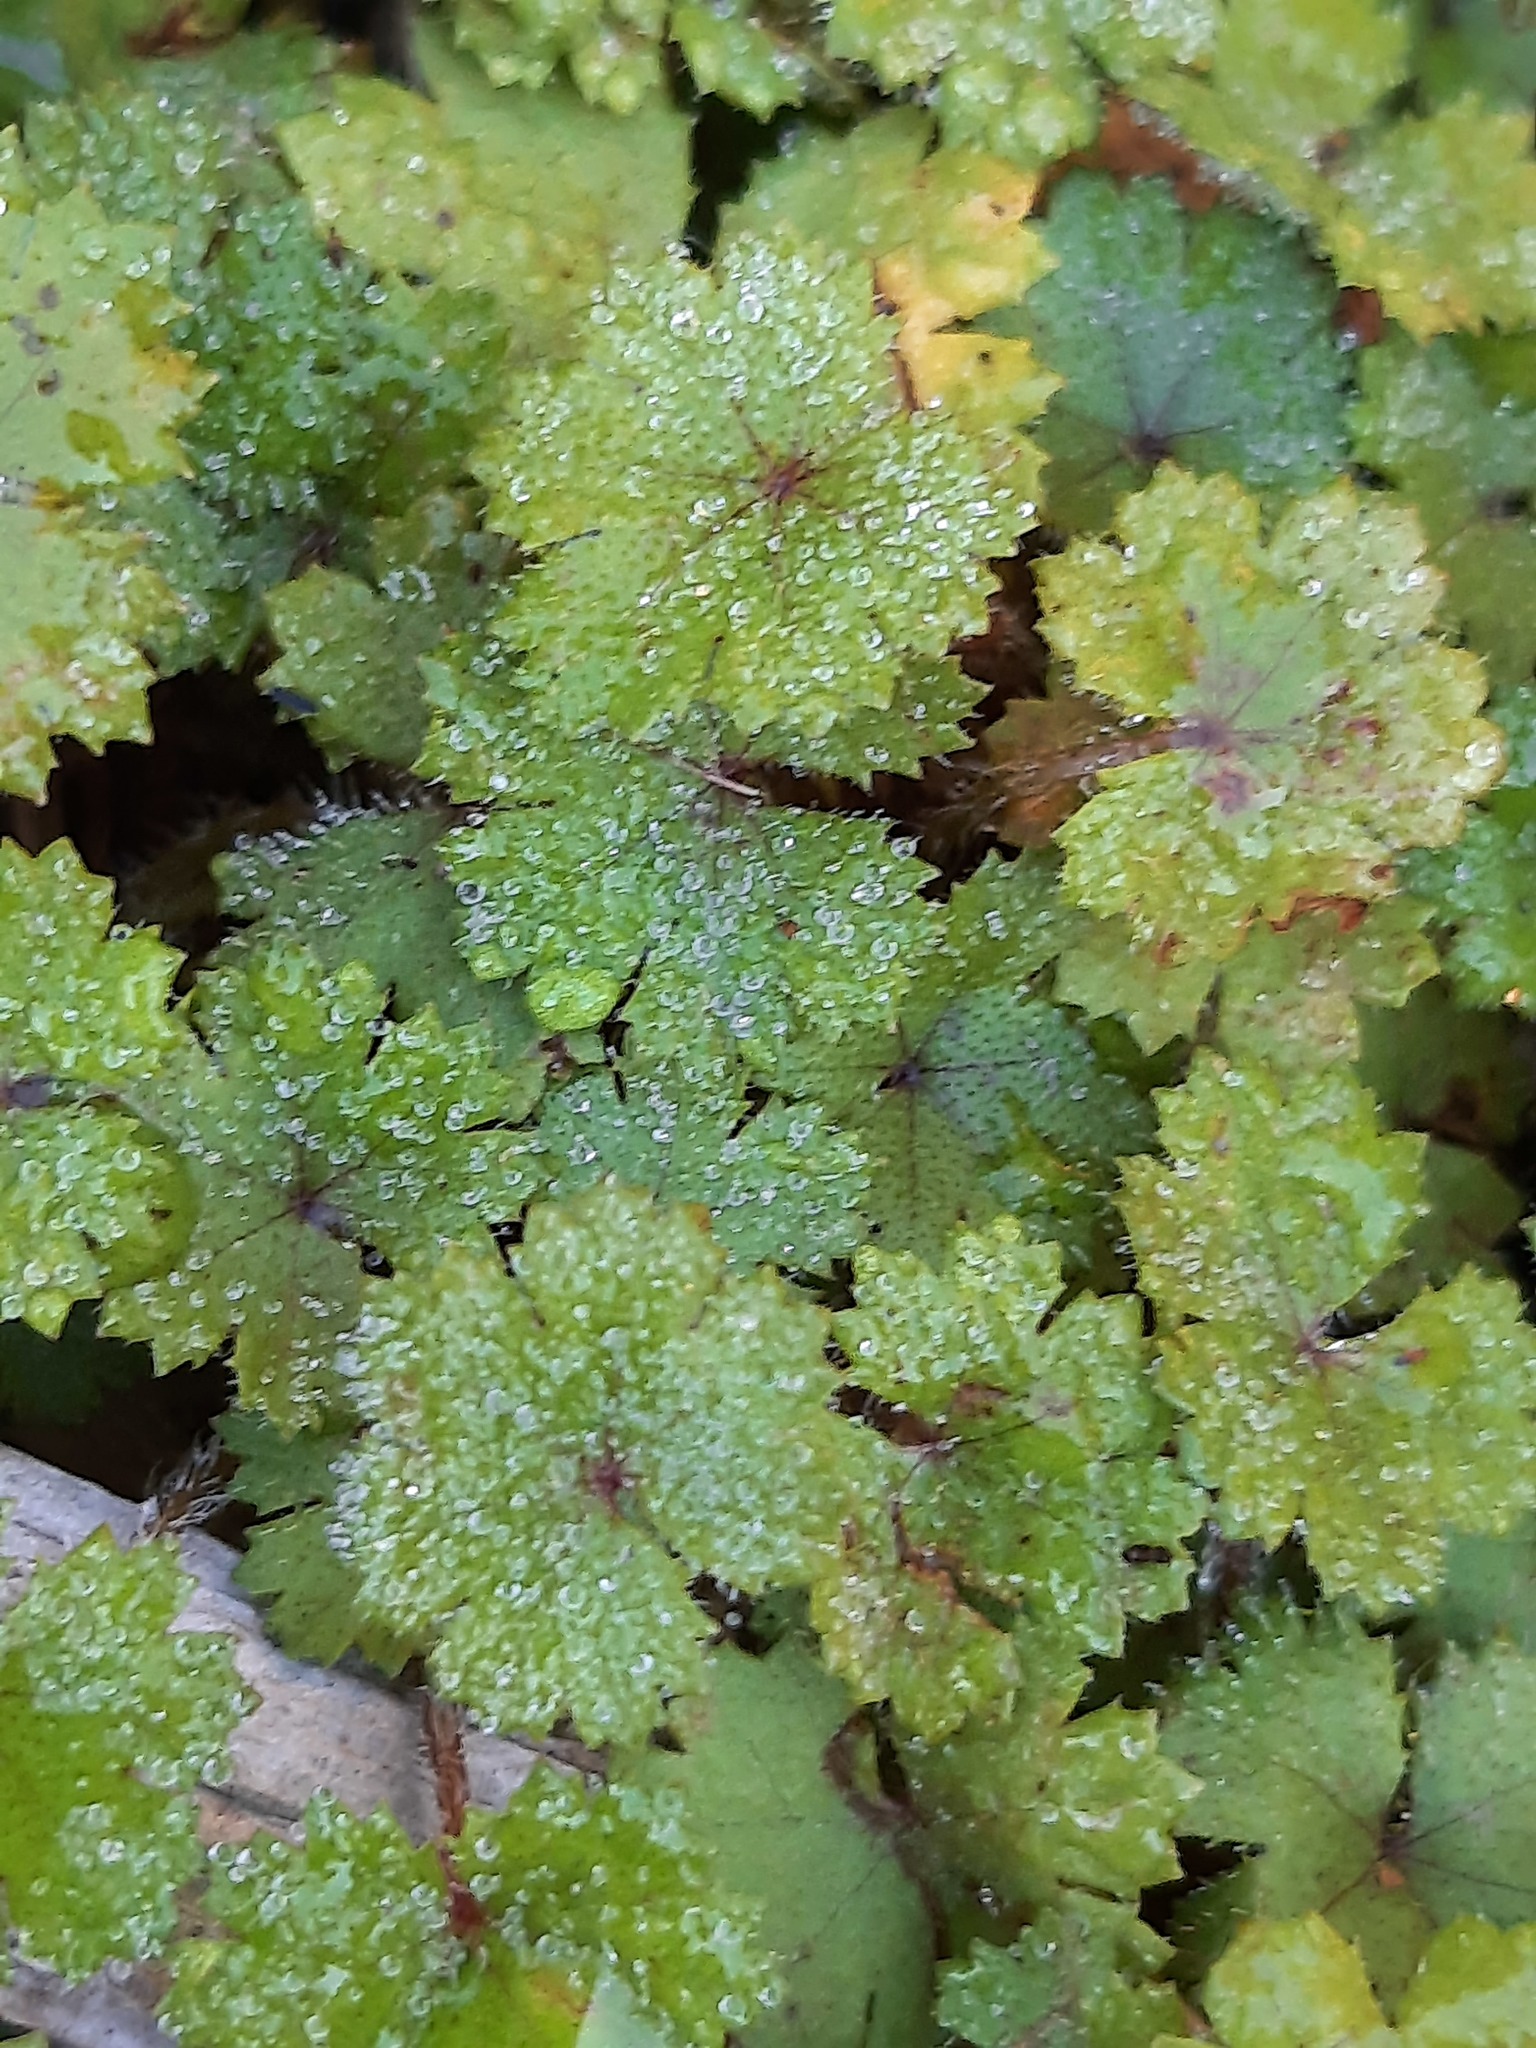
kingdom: Plantae
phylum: Tracheophyta
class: Magnoliopsida
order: Apiales
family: Araliaceae
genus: Hydrocotyle
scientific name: Hydrocotyle moschata
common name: Hairy pennywort
